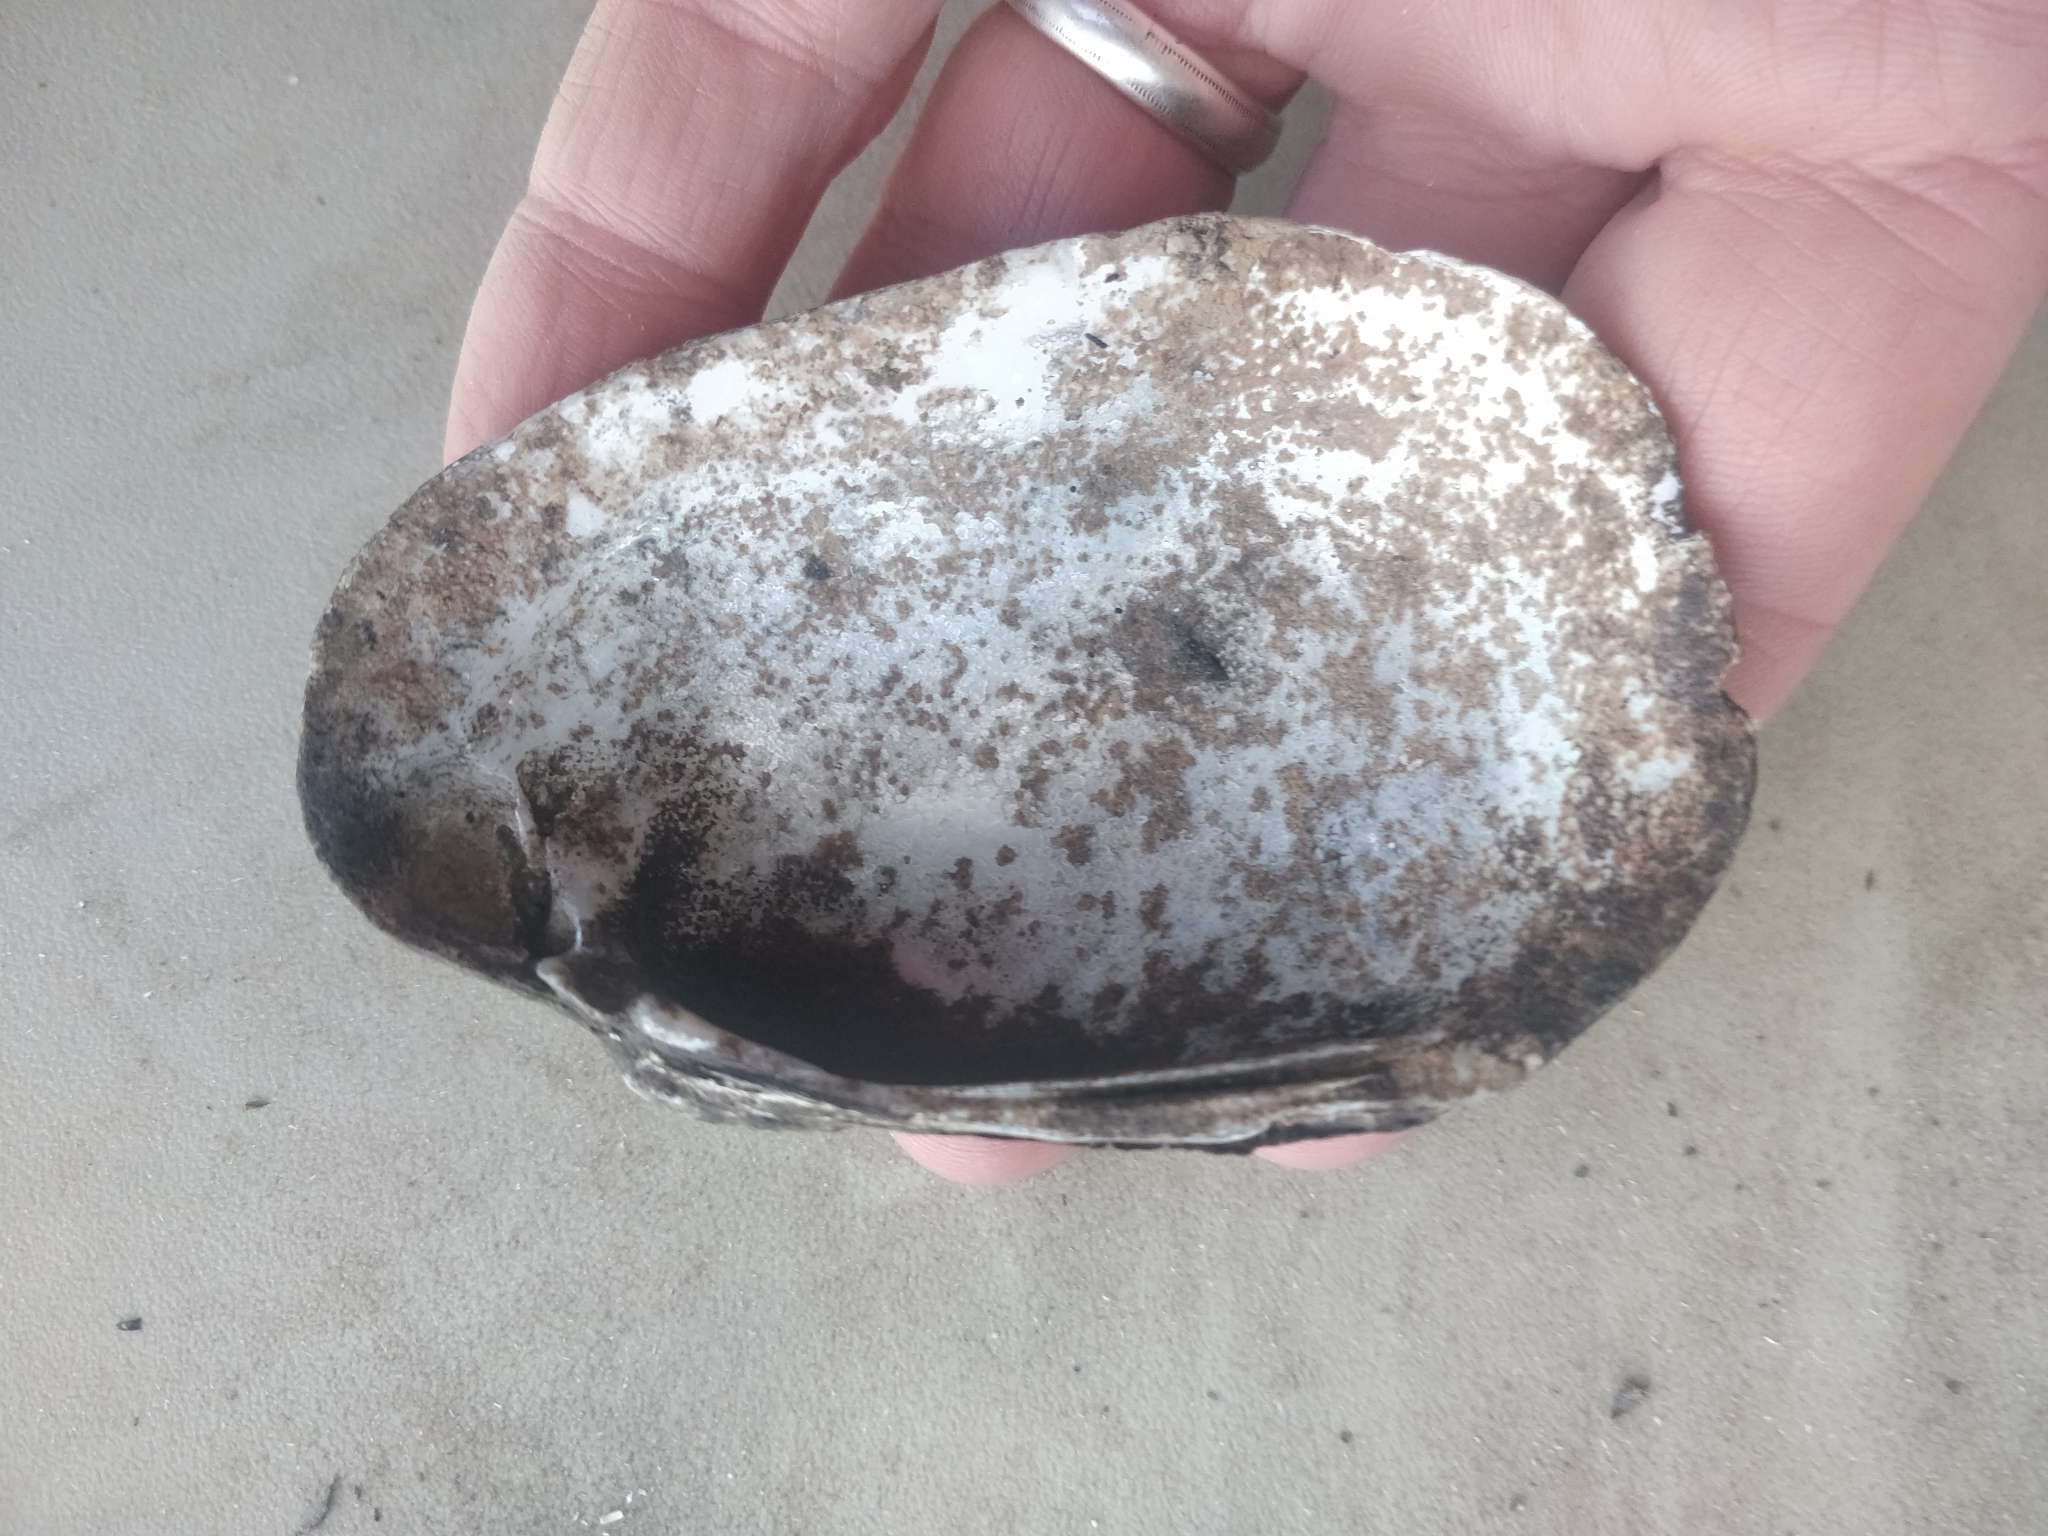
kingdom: Animalia
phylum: Mollusca
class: Bivalvia
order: Unionida
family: Unionidae
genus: Lampsilis
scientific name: Lampsilis siliquoidea
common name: Fatmucket
